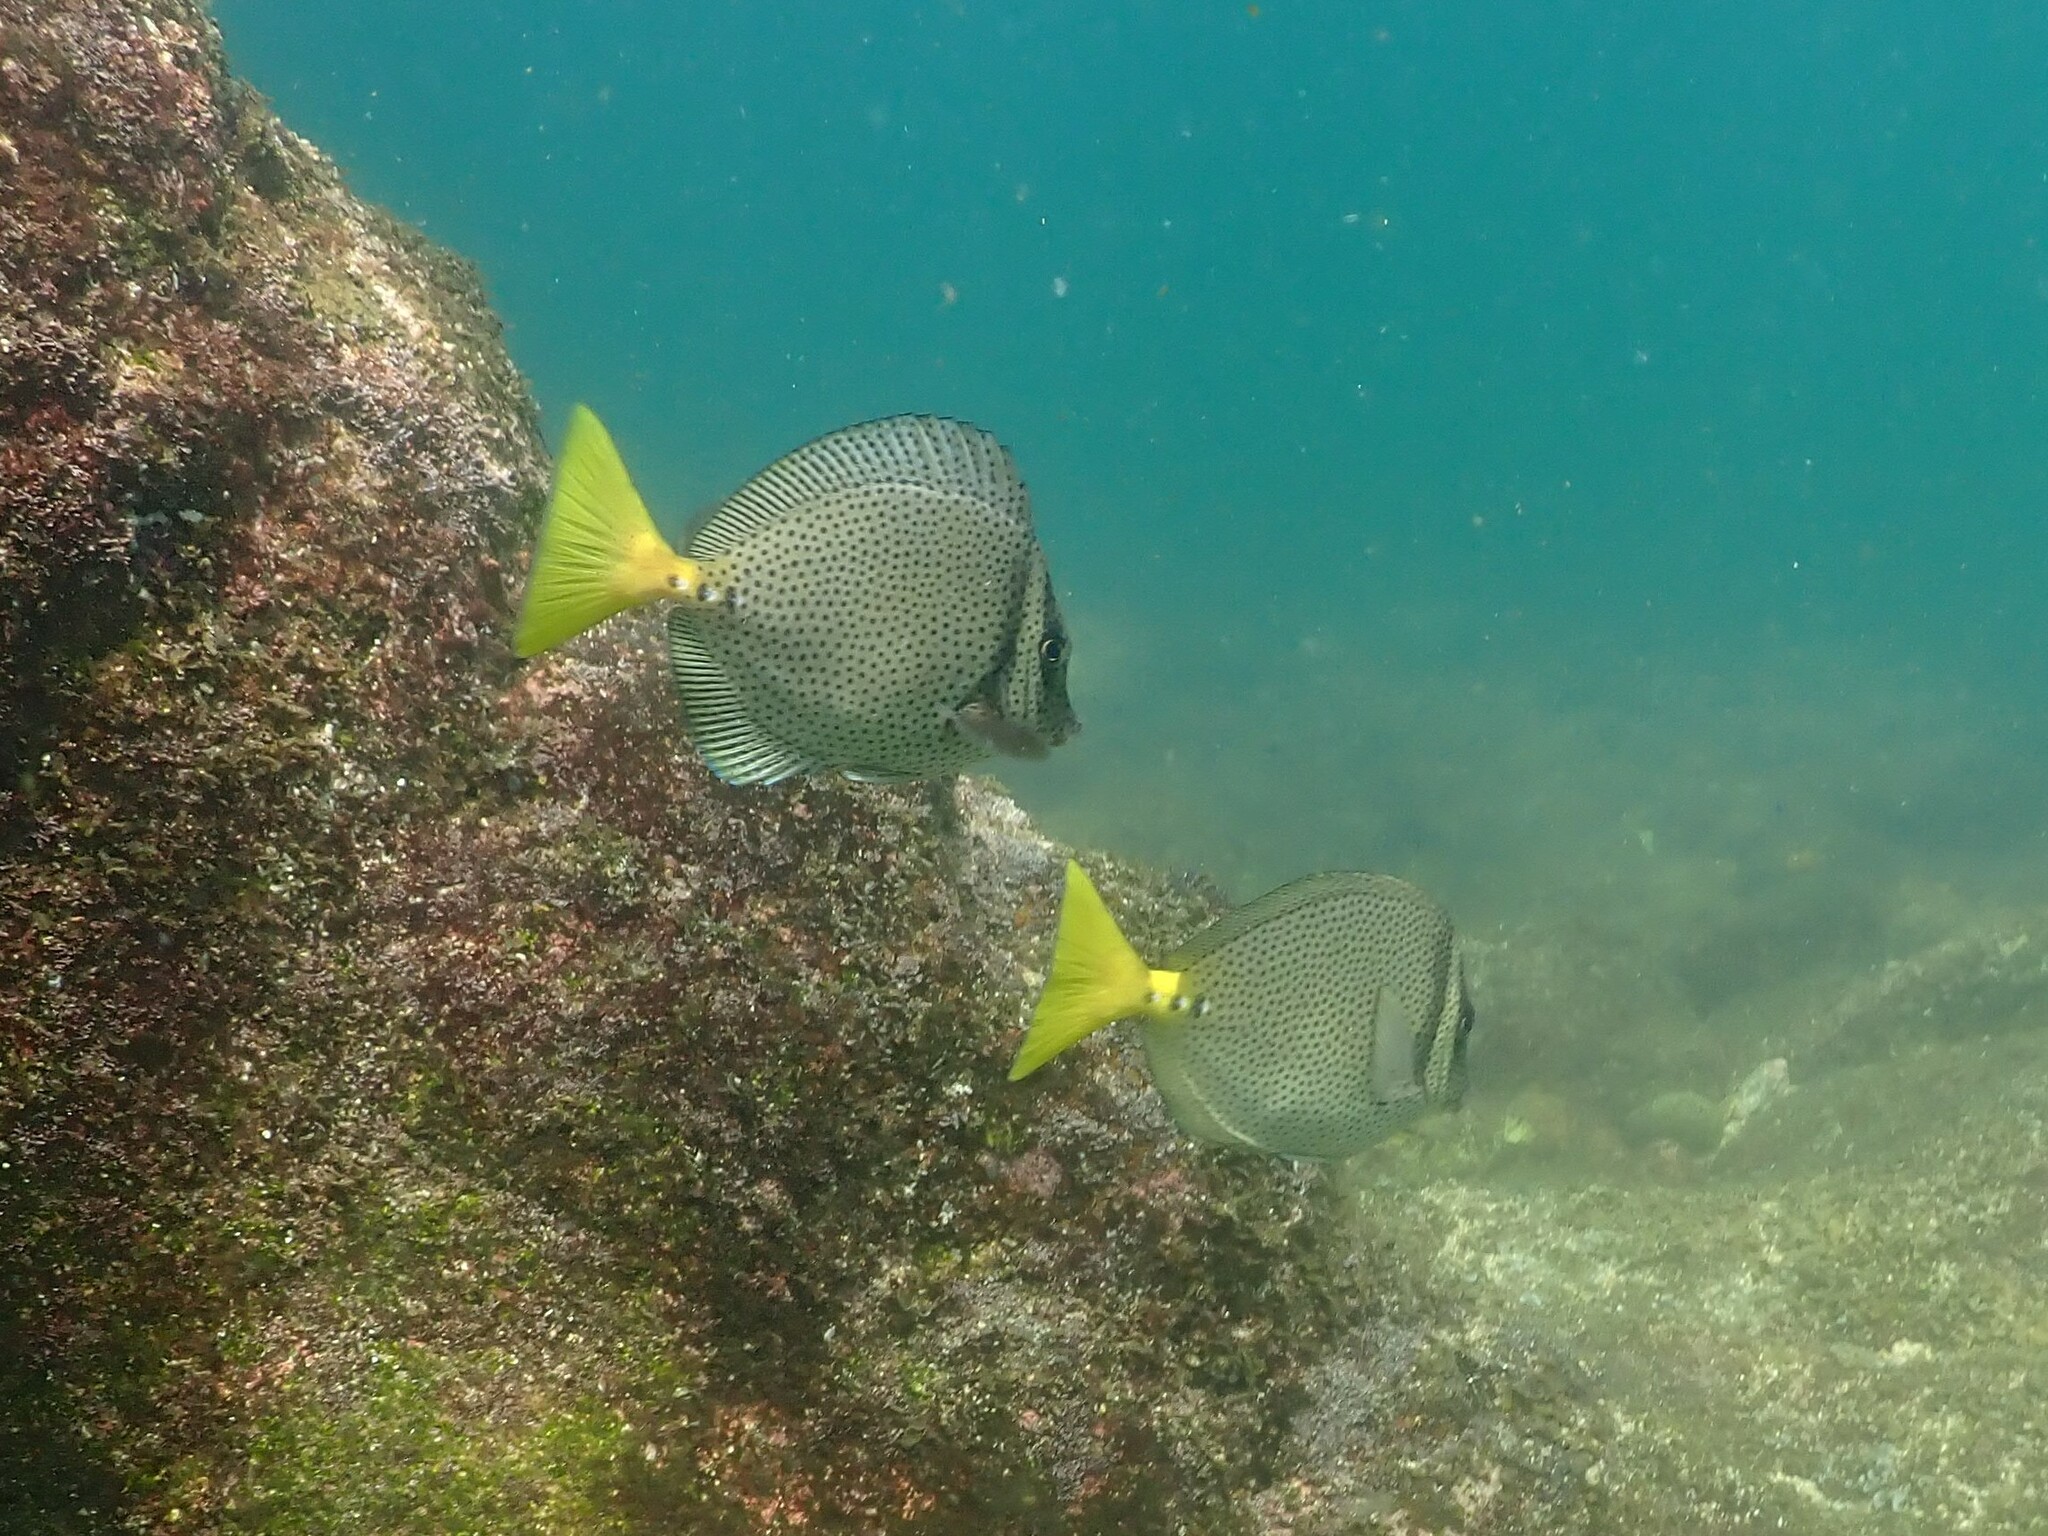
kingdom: Animalia
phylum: Chordata
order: Perciformes
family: Acanthuridae
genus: Prionurus
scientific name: Prionurus laticlavius
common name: Razor surgeonfish
